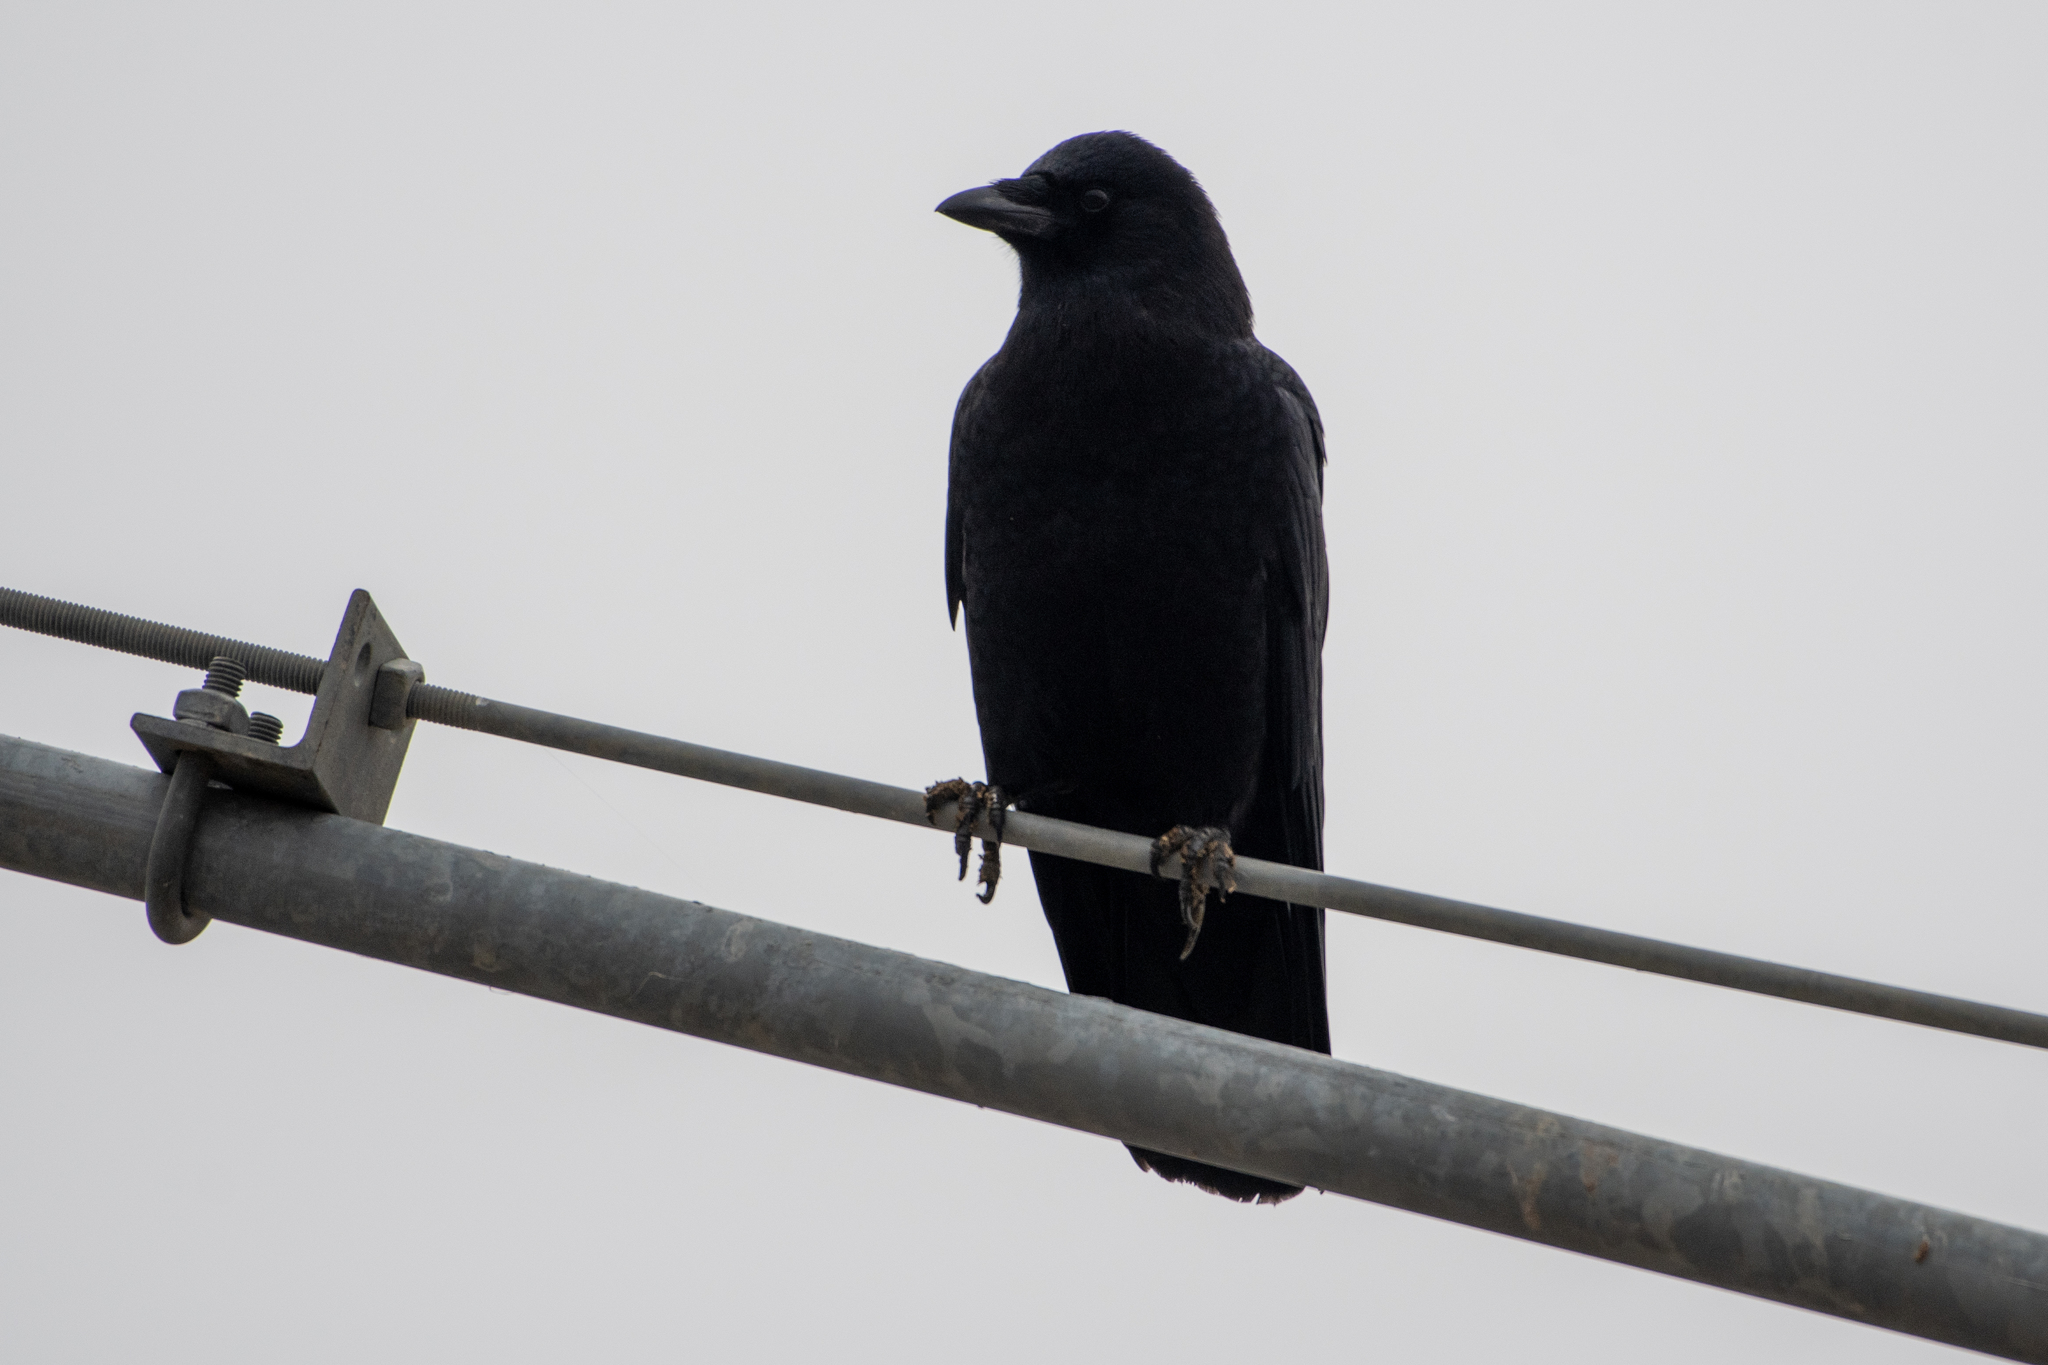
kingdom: Animalia
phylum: Chordata
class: Aves
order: Passeriformes
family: Corvidae
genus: Corvus
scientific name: Corvus brachyrhynchos
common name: American crow
